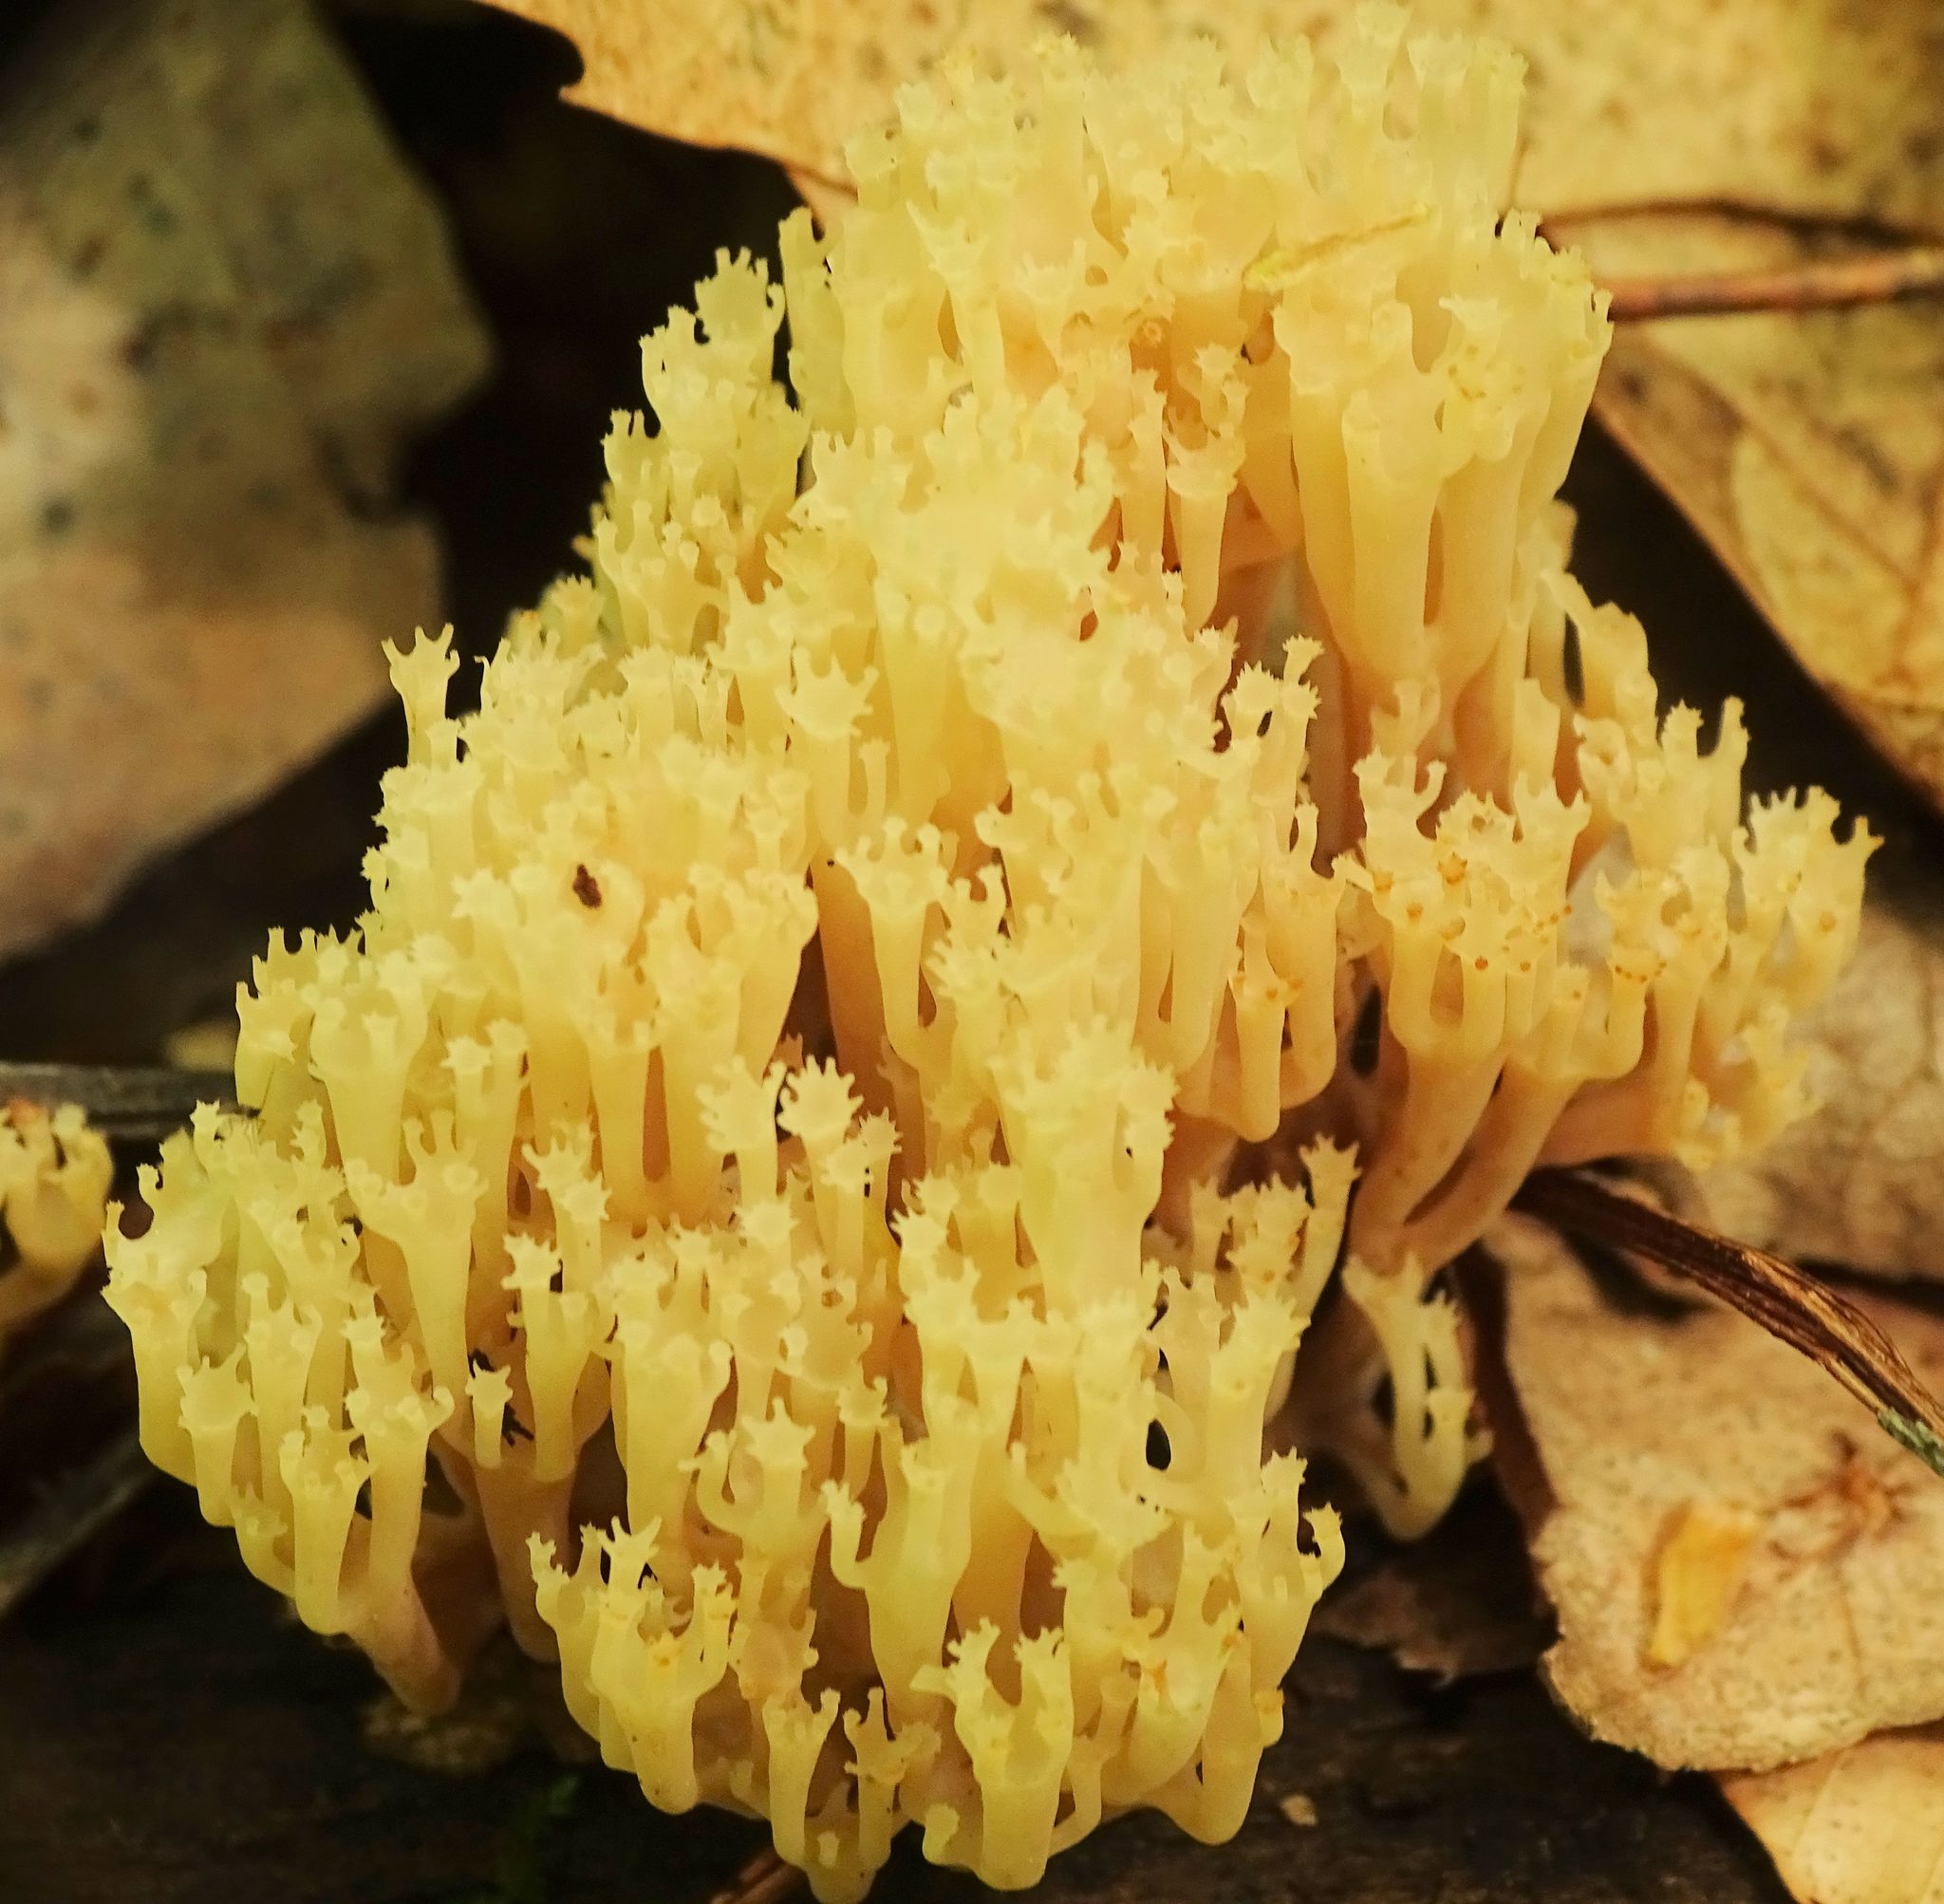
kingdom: Fungi
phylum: Basidiomycota
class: Agaricomycetes
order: Russulales
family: Auriscalpiaceae
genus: Artomyces
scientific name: Artomyces pyxidatus
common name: Crown-tipped coral fungus
